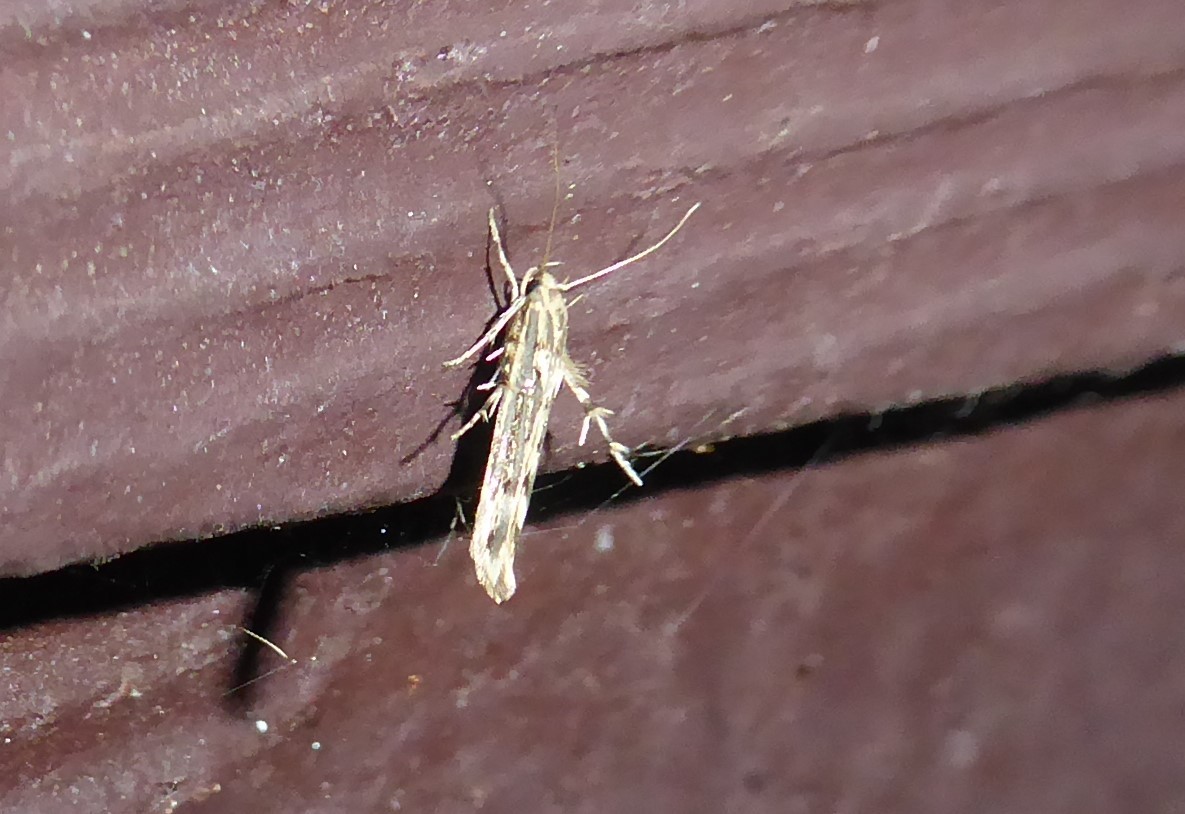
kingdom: Animalia
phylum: Arthropoda
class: Insecta
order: Lepidoptera
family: Stathmopodidae
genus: Stathmopoda
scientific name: Stathmopoda plumbiflua
